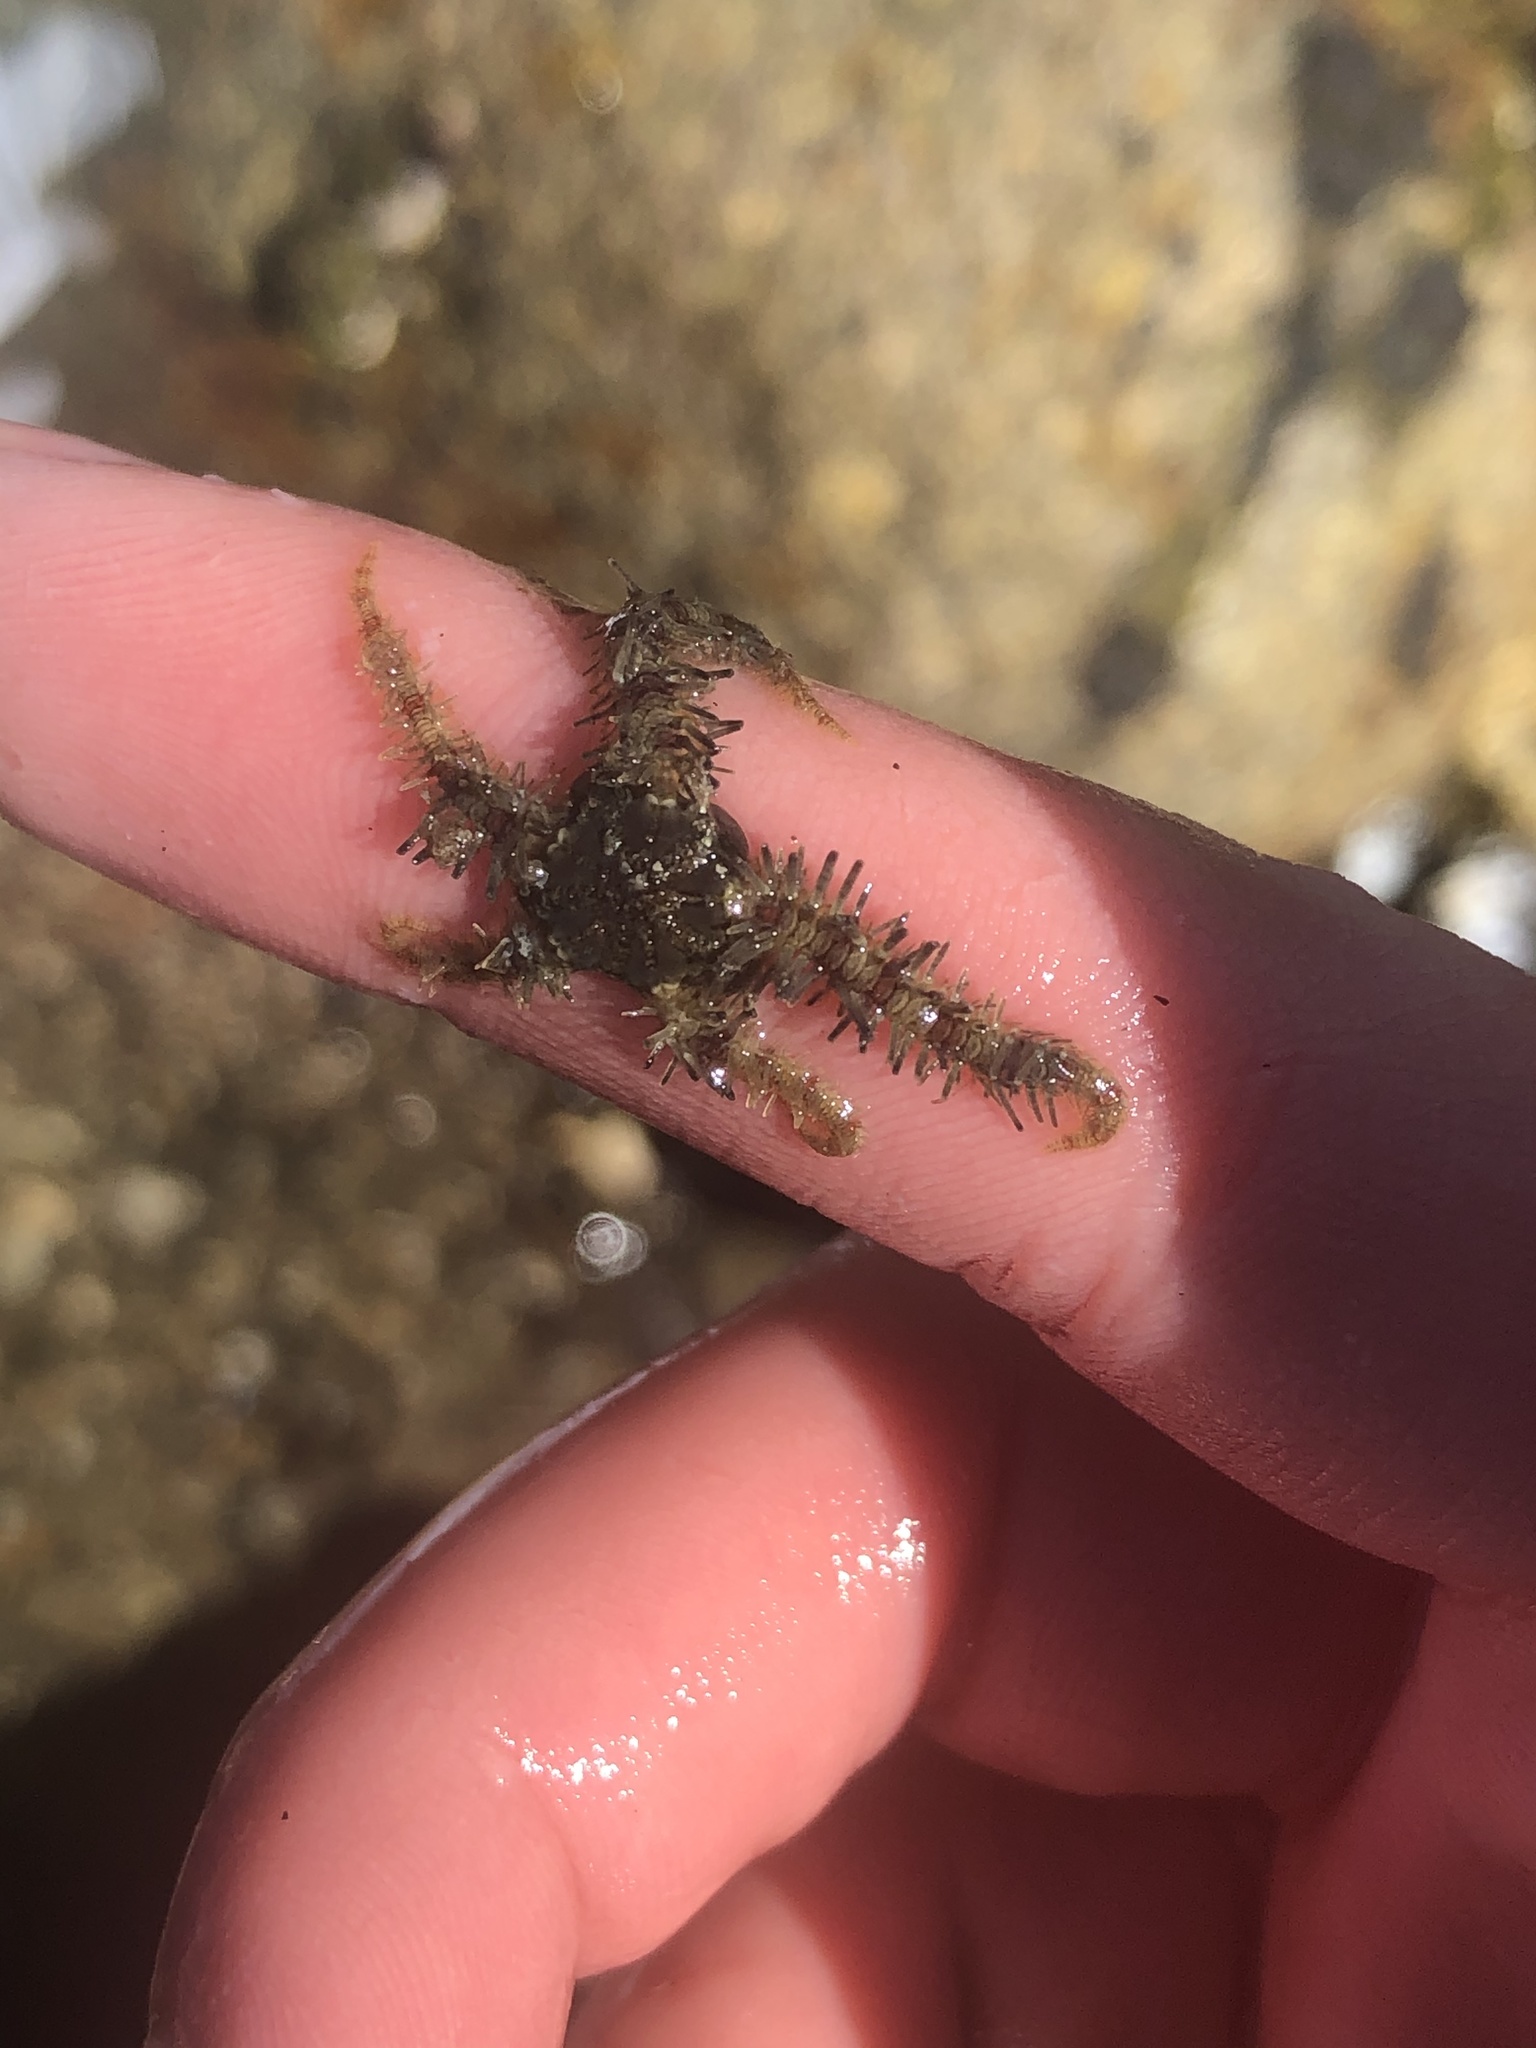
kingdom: Animalia
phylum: Echinodermata
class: Ophiuroidea
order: Amphilepidida
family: Ophiotrichidae
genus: Ophiothrix
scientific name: Ophiothrix rudis
